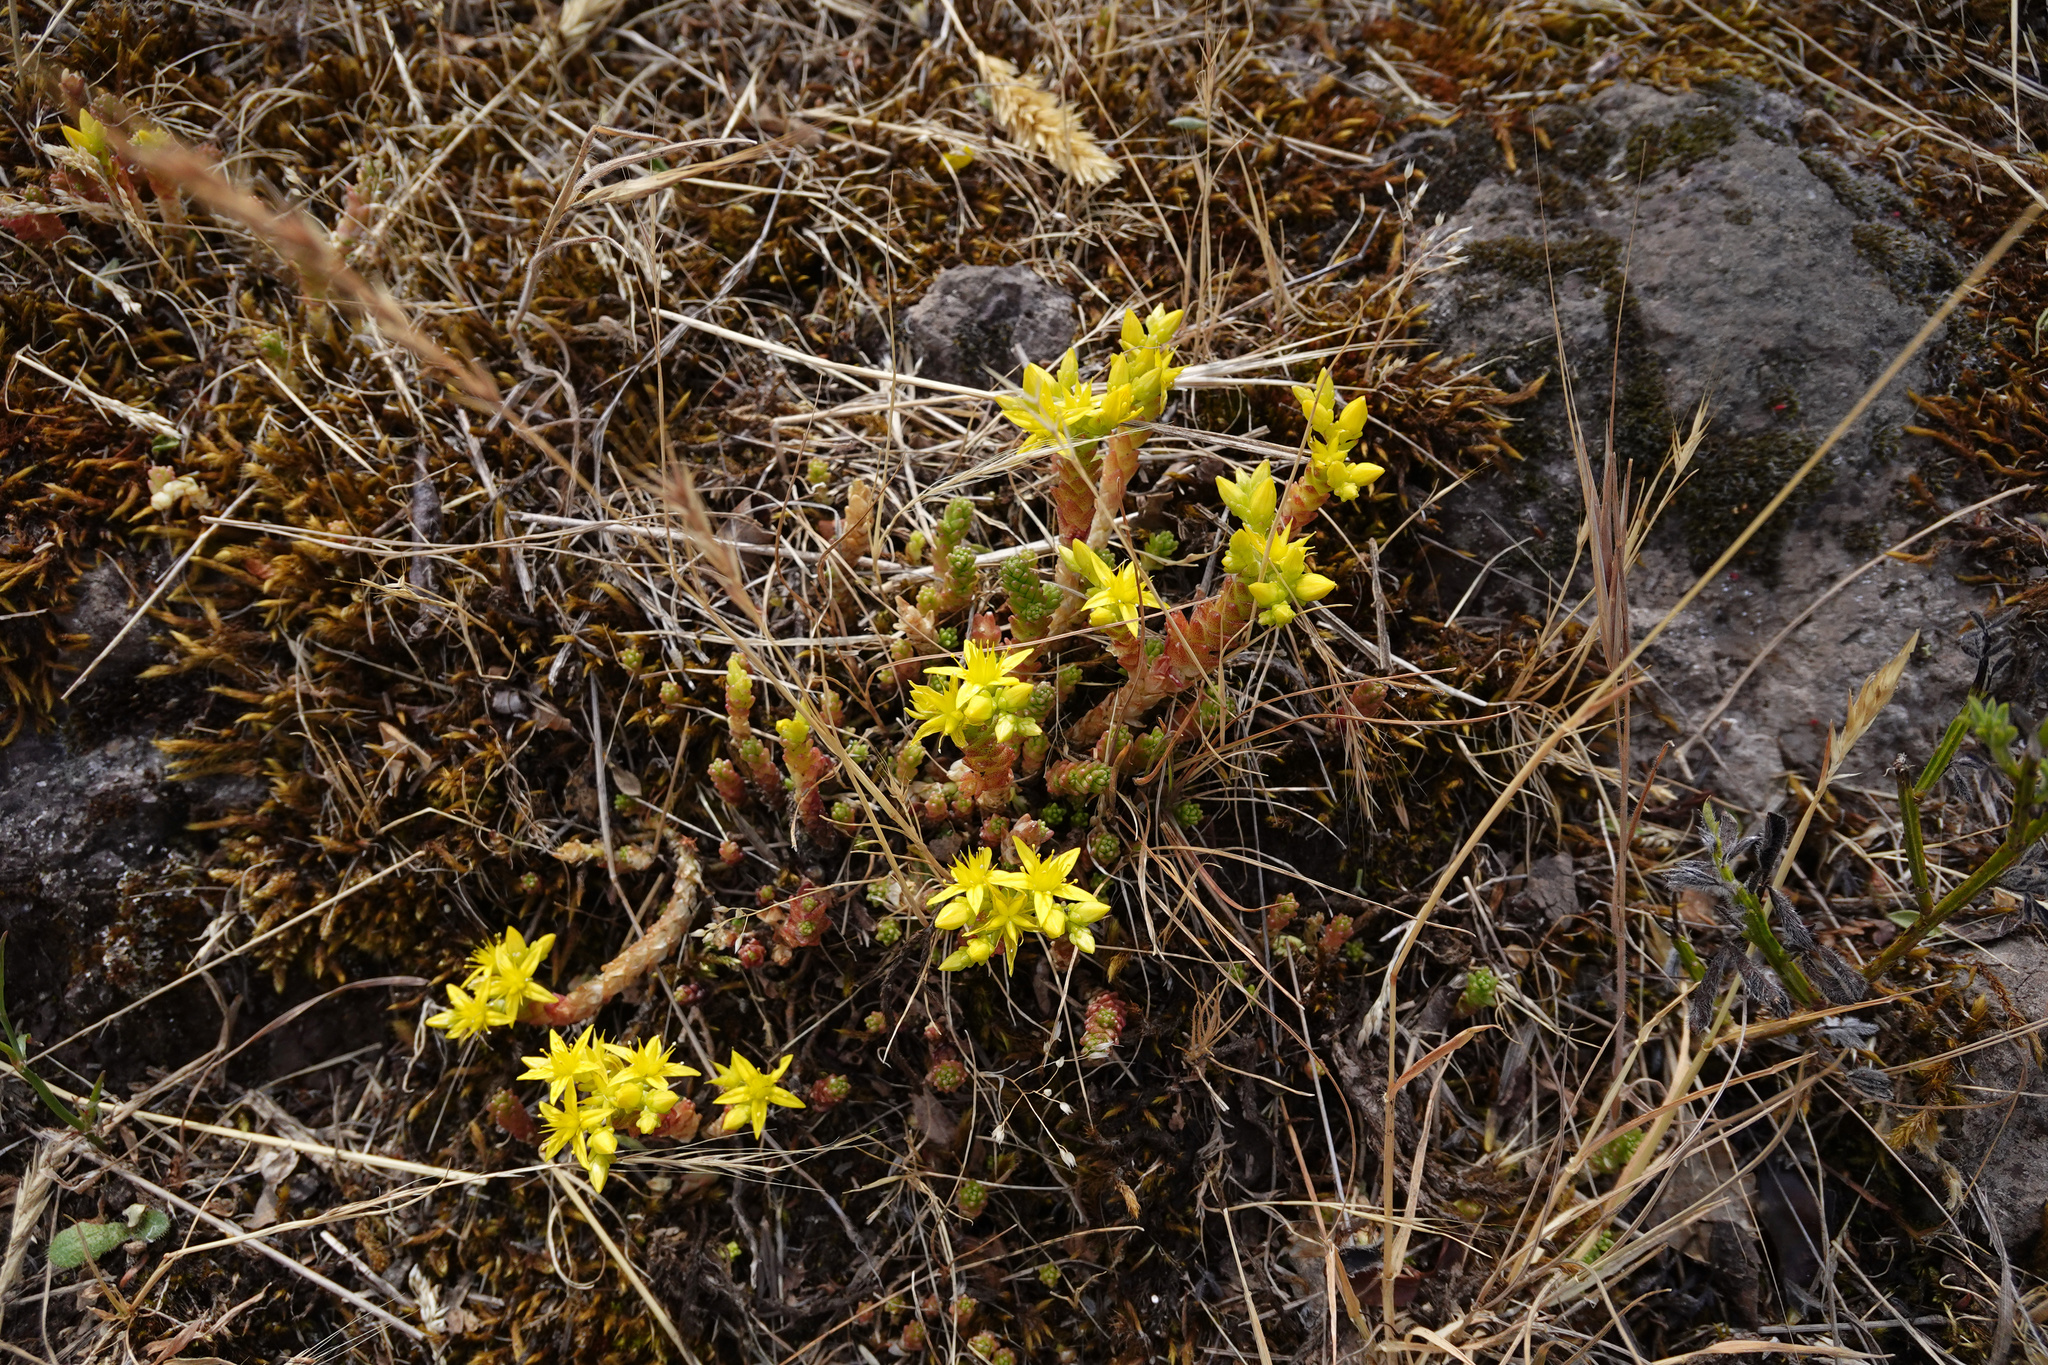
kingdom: Plantae
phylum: Tracheophyta
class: Magnoliopsida
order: Saxifragales
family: Crassulaceae
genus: Sedum
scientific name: Sedum acre
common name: Biting stonecrop
